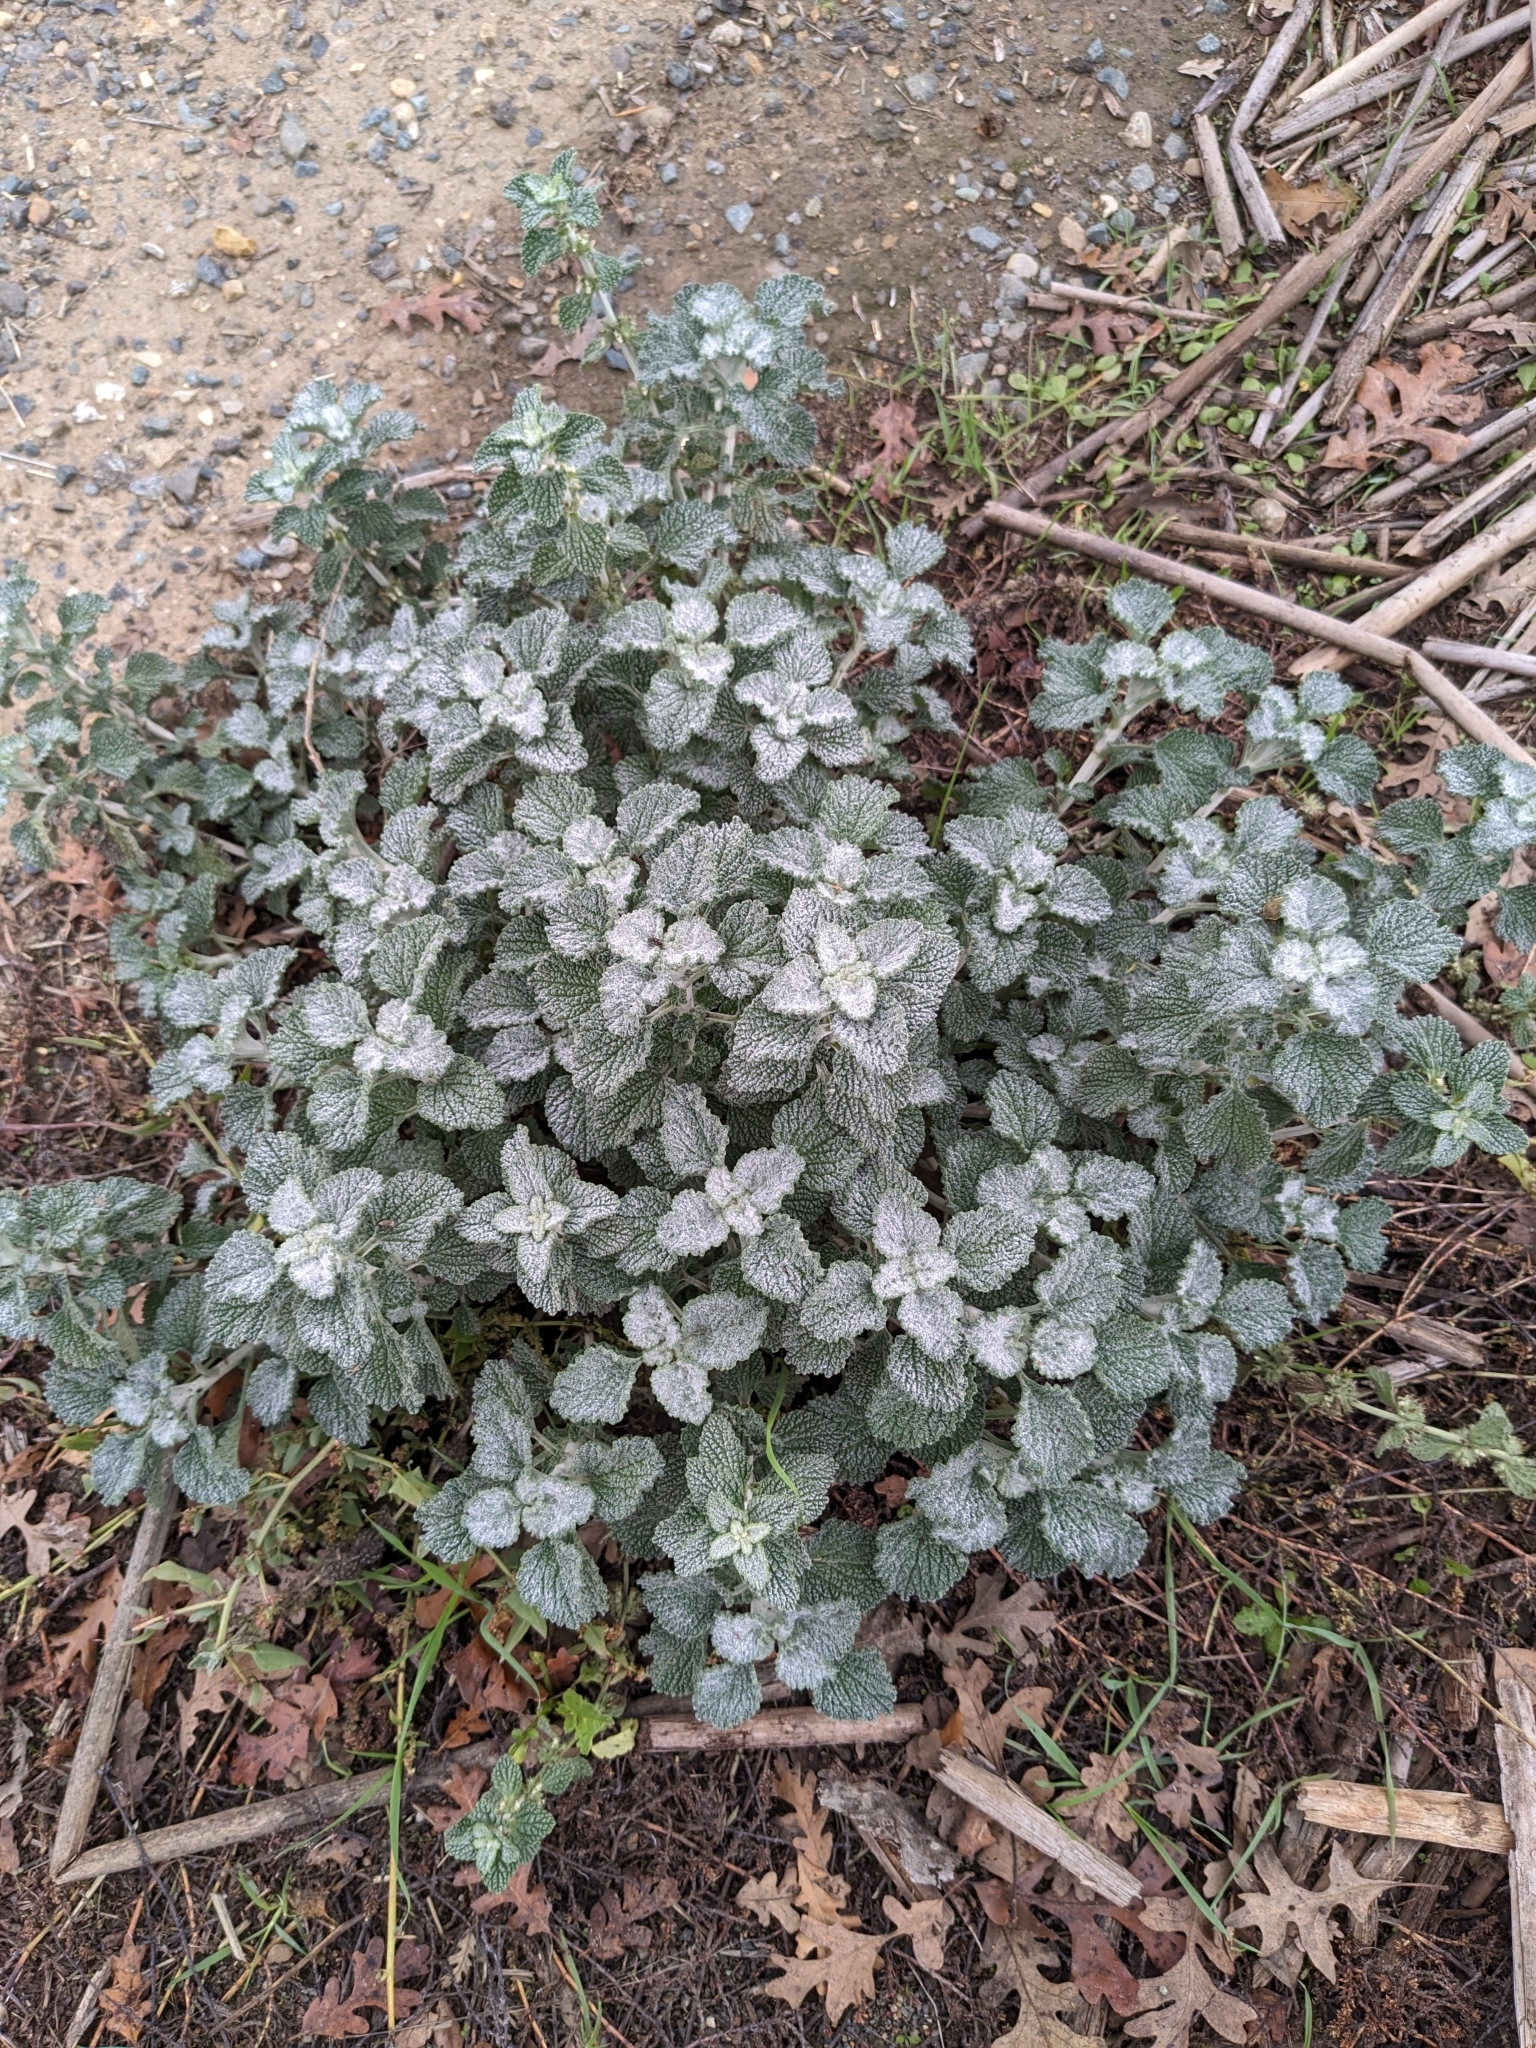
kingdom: Plantae
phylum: Tracheophyta
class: Magnoliopsida
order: Lamiales
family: Lamiaceae
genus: Marrubium
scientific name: Marrubium vulgare
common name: Horehound
